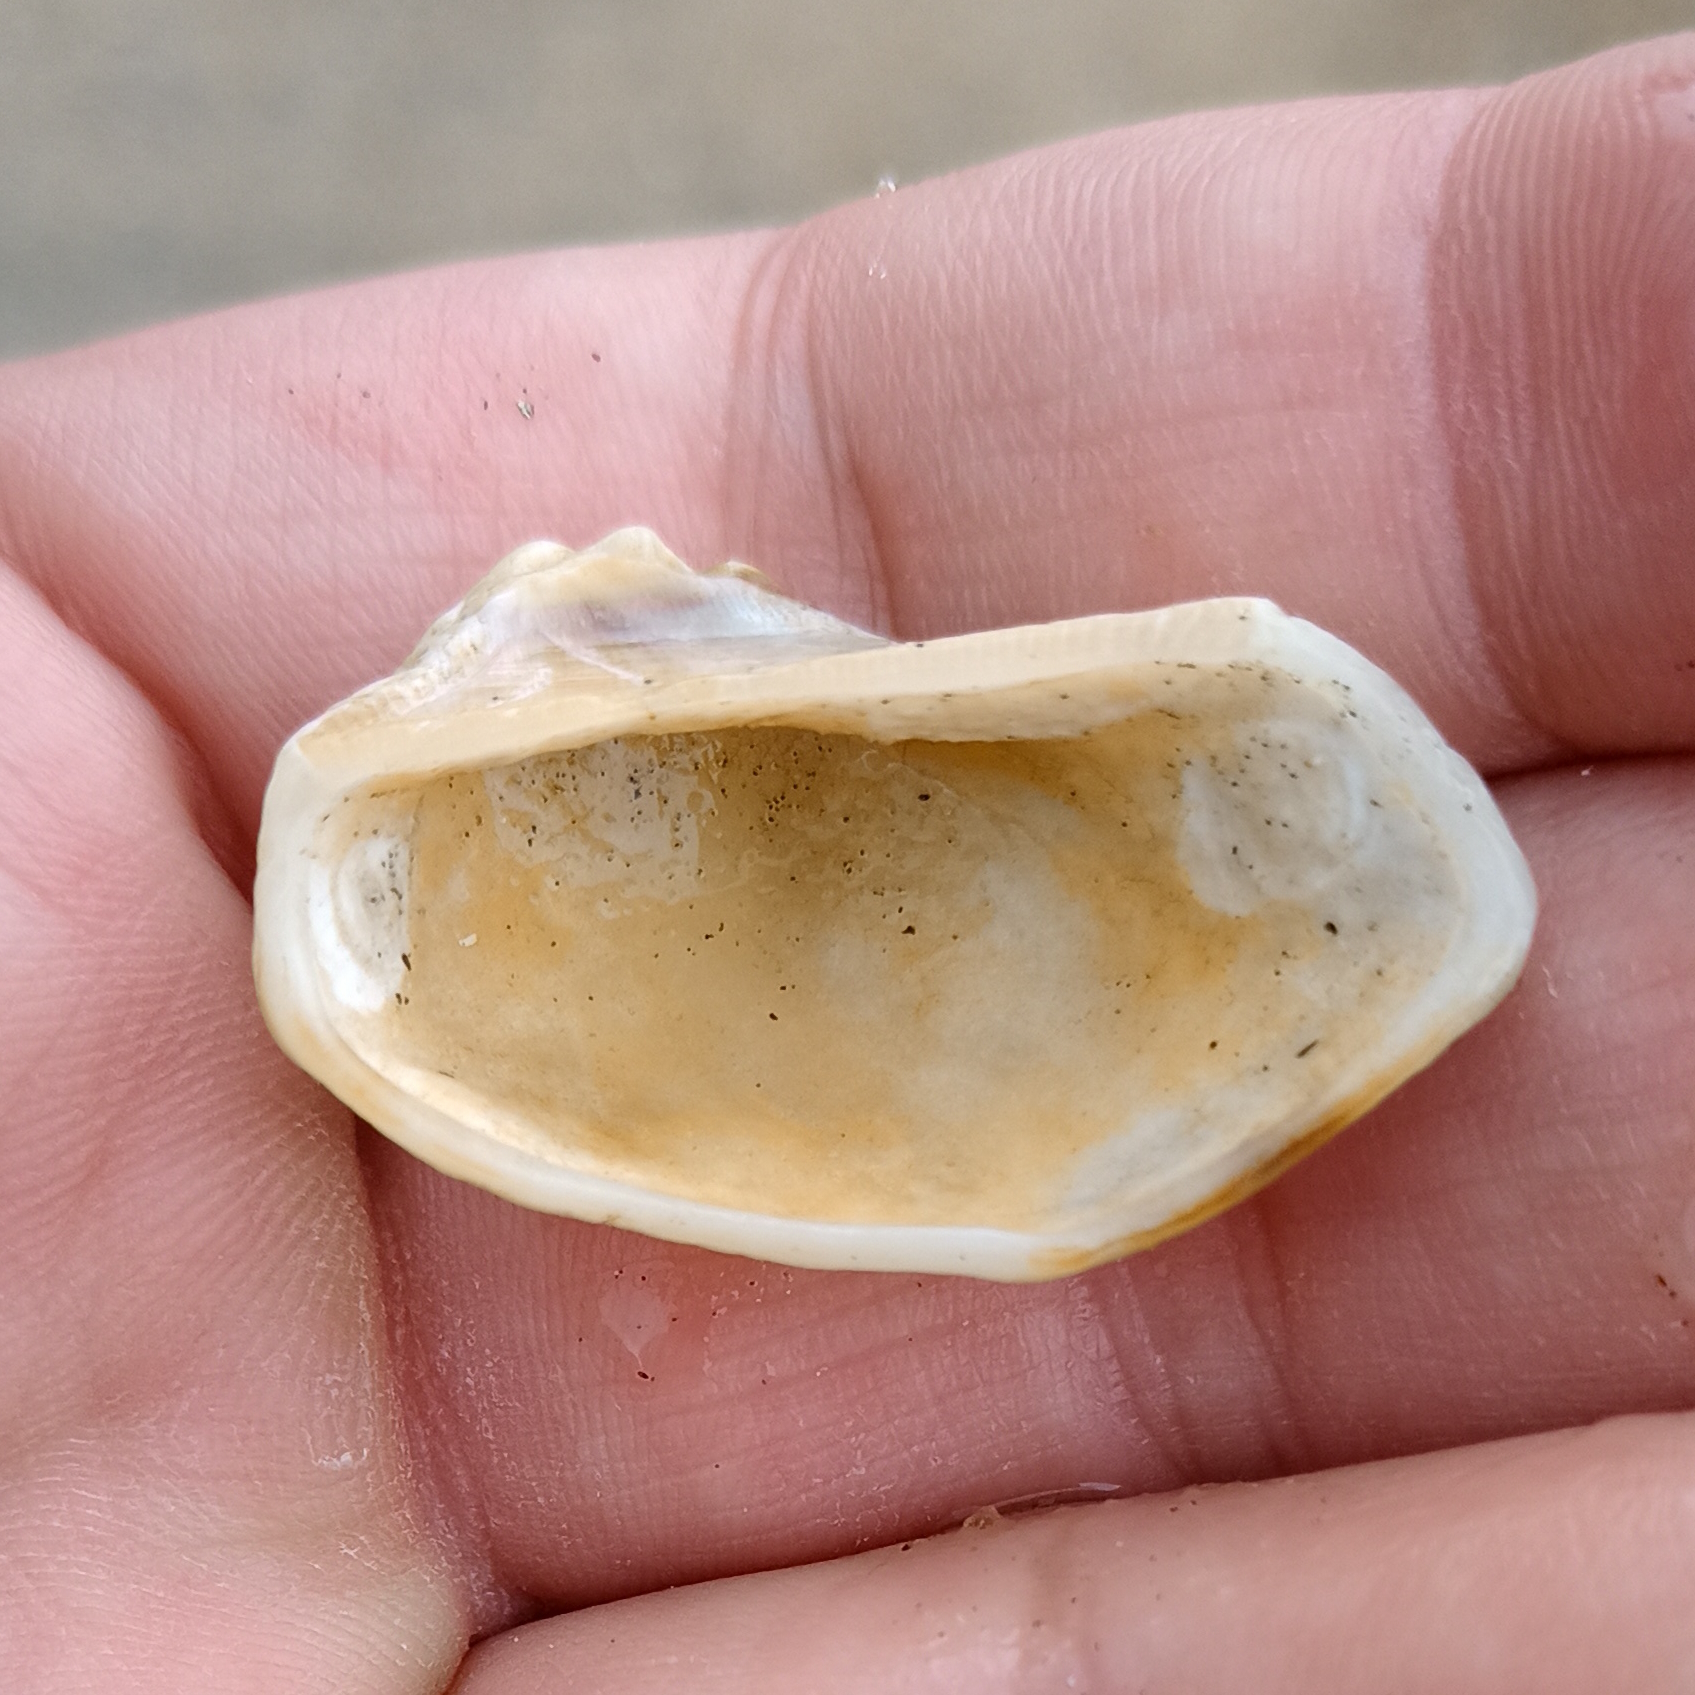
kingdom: Animalia
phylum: Mollusca
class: Bivalvia
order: Arcida
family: Arcidae
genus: Lamarcka
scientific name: Lamarcka imbricata
